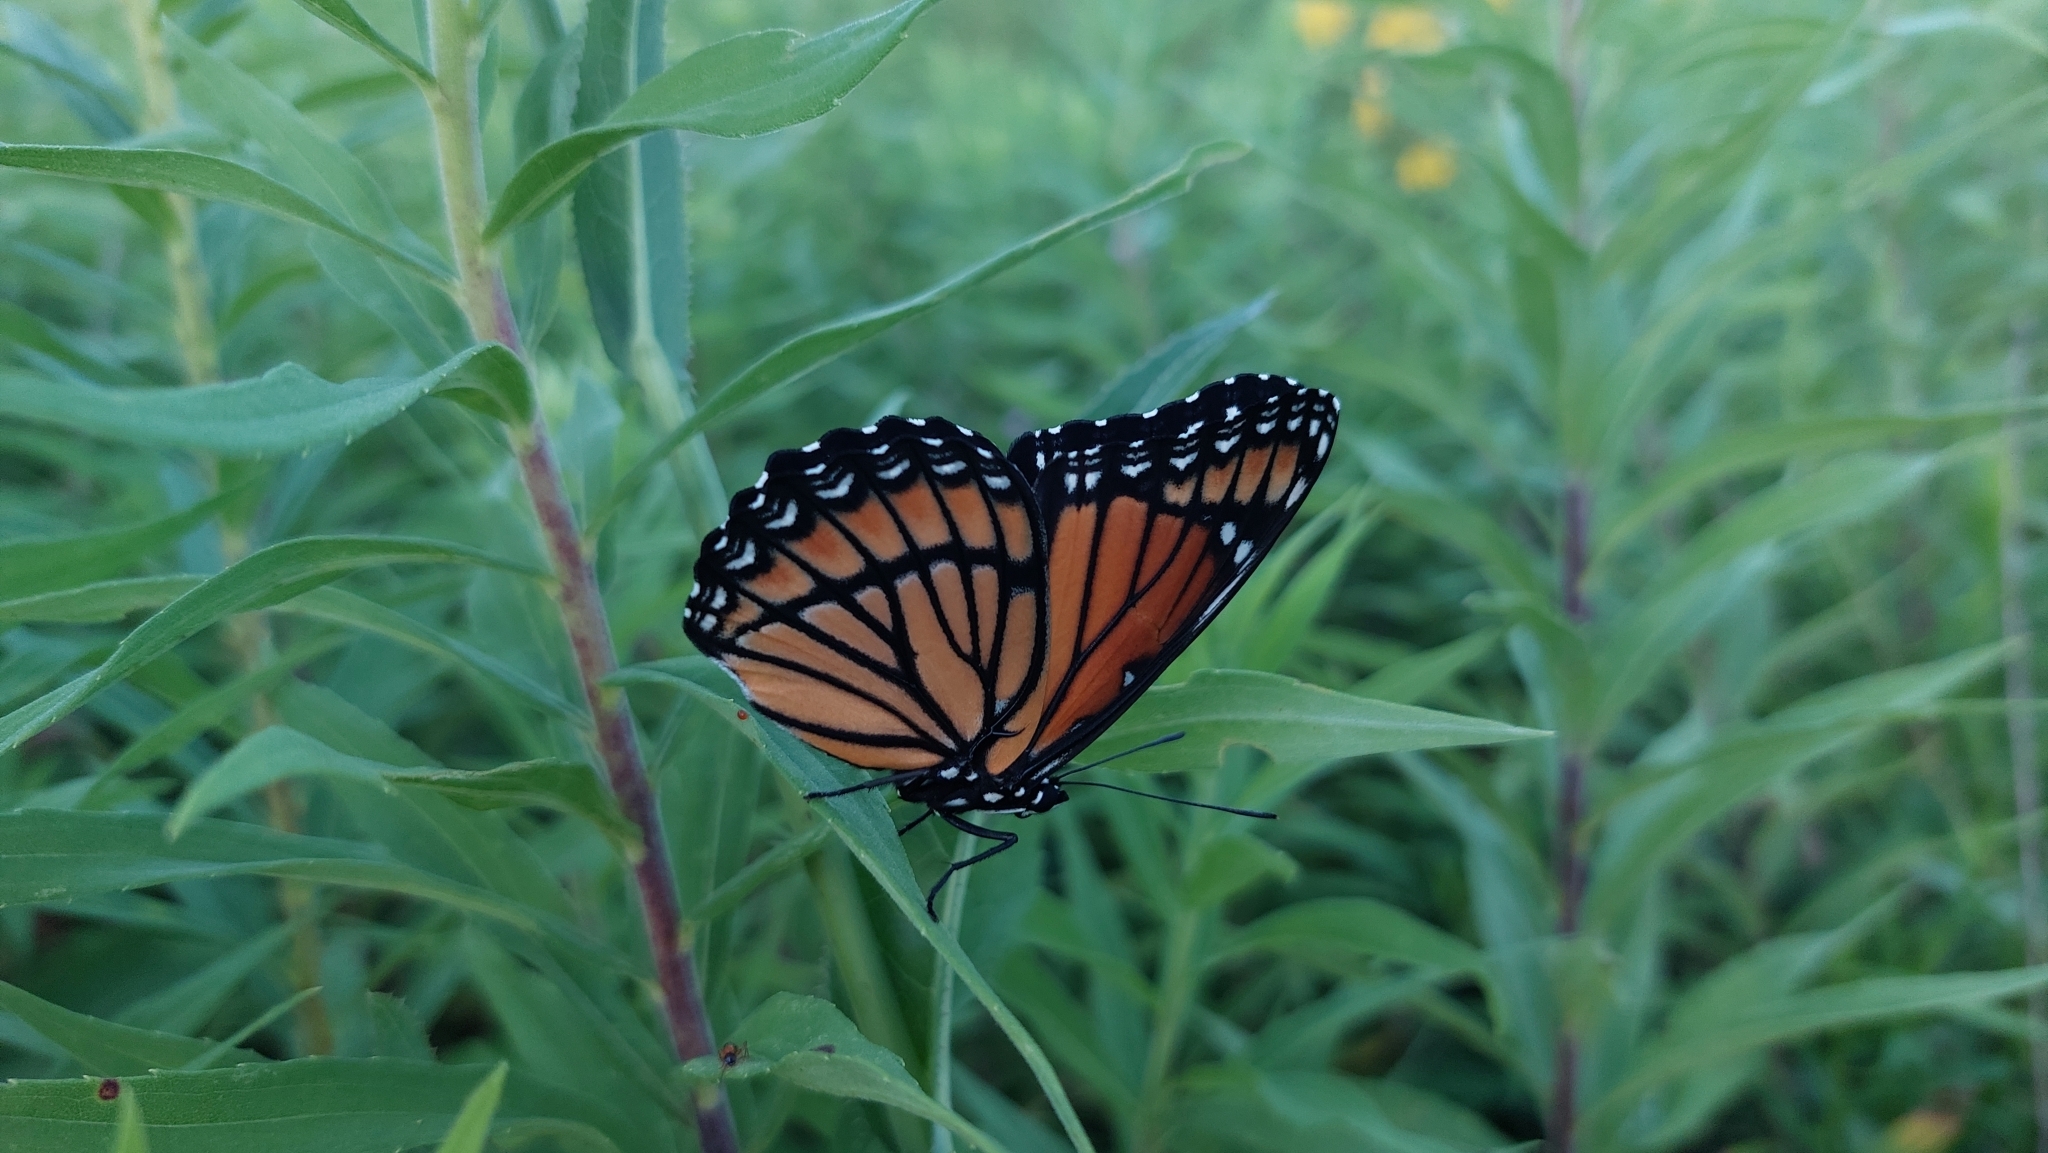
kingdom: Animalia
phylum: Arthropoda
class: Insecta
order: Lepidoptera
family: Nymphalidae
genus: Limenitis
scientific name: Limenitis archippus
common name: Viceroy
